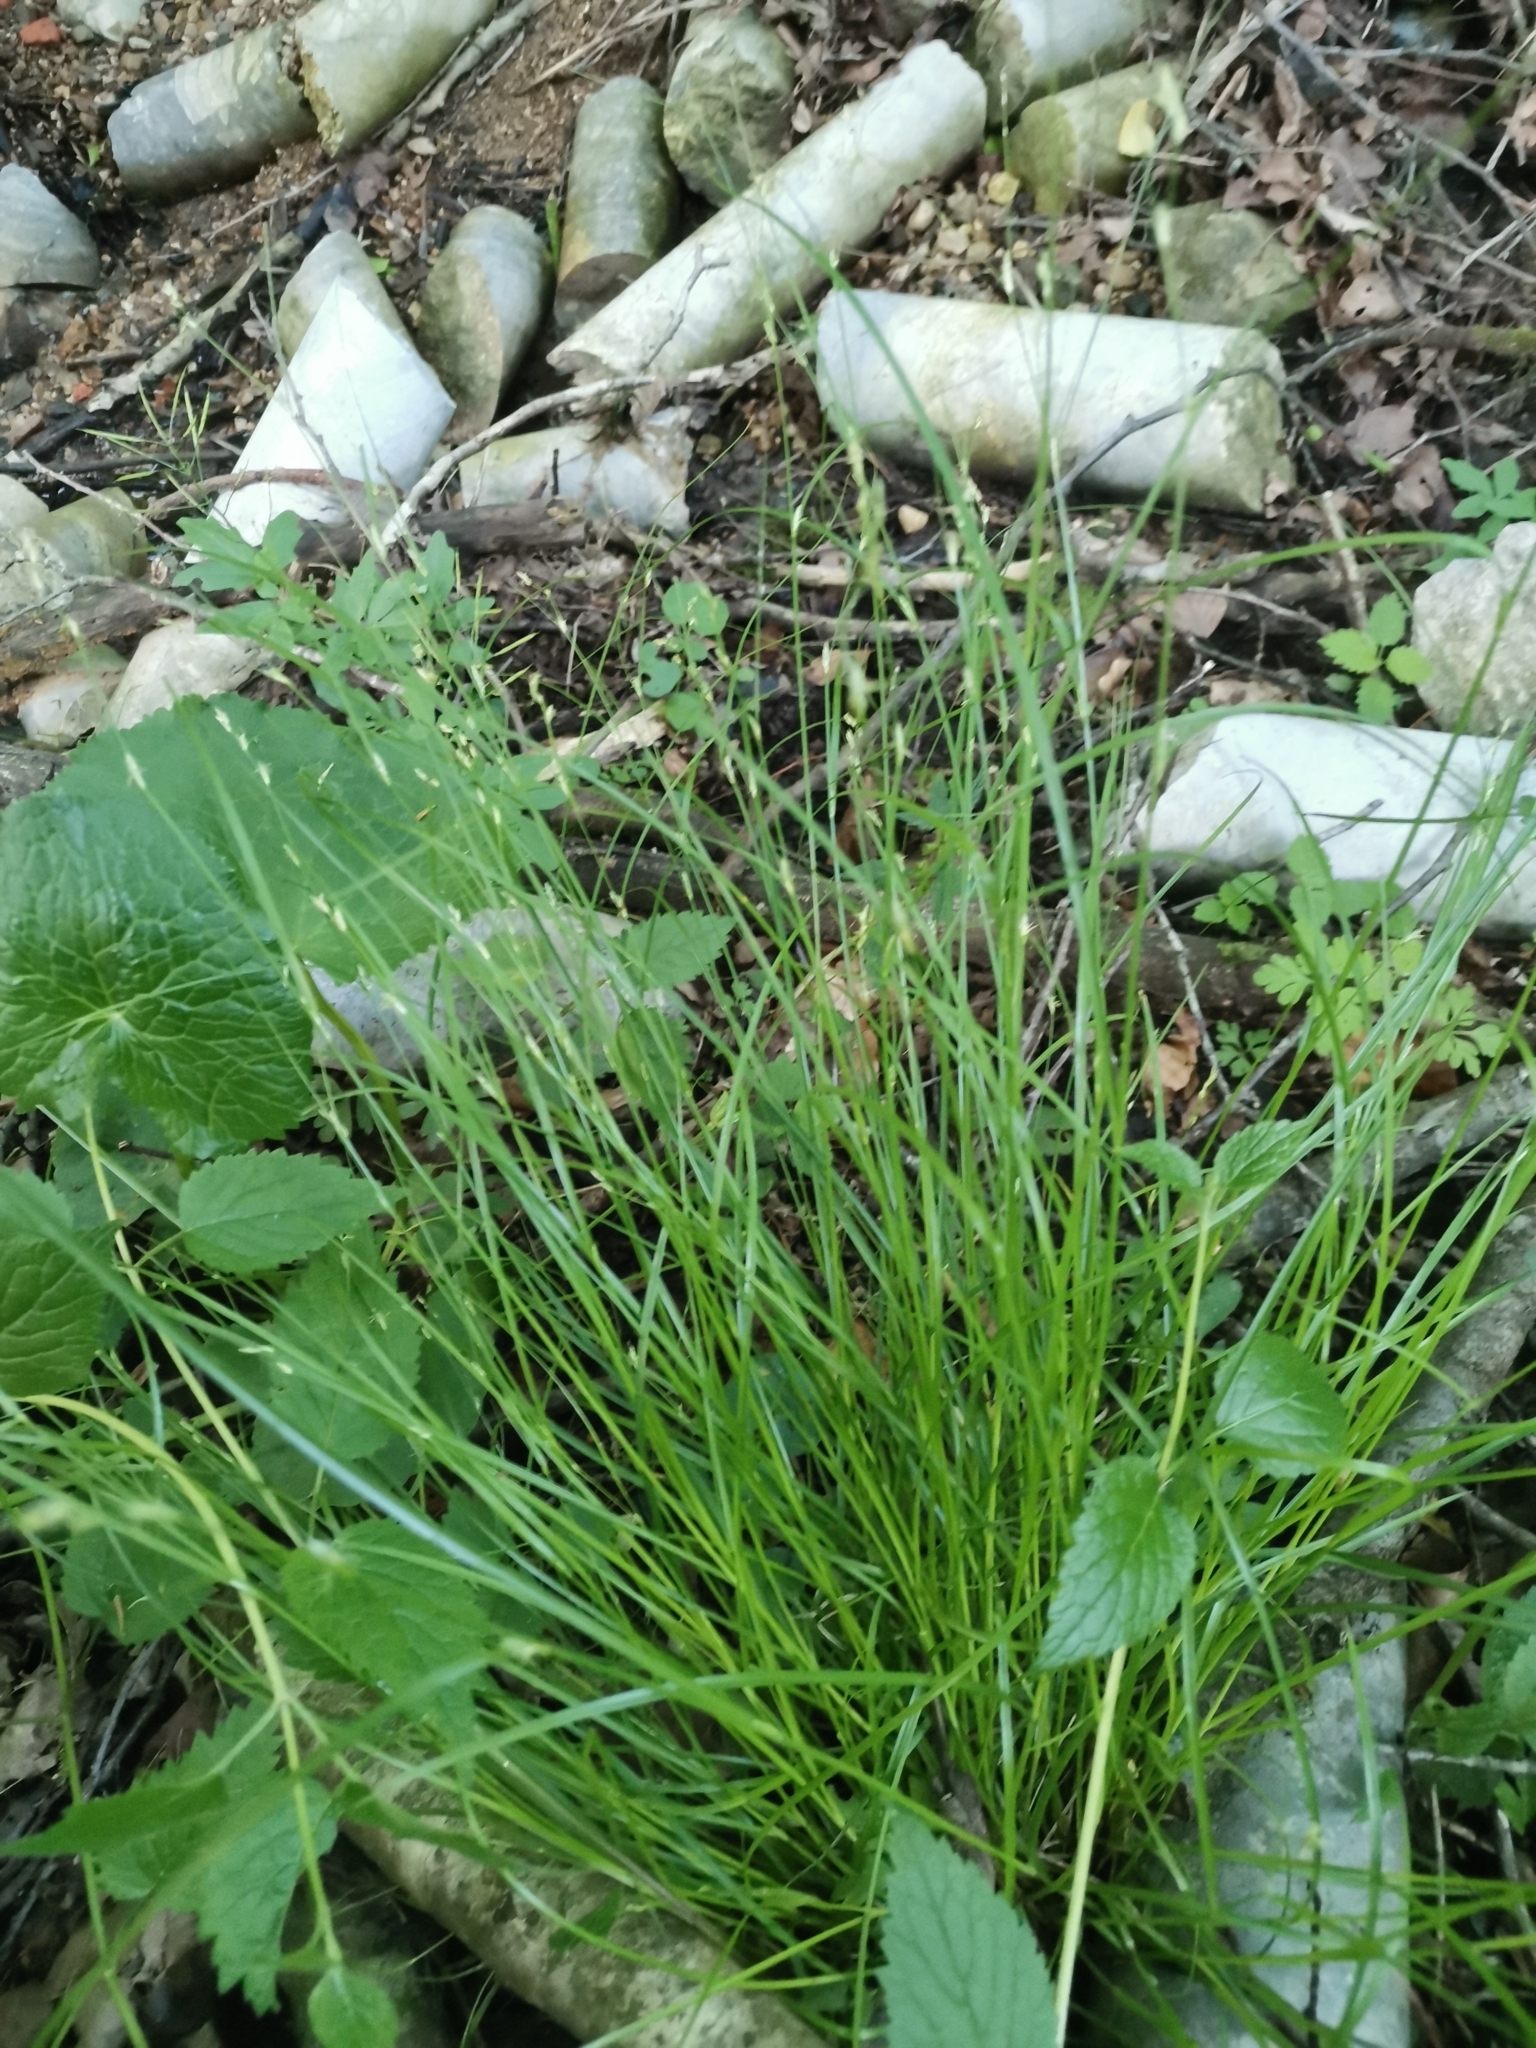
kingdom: Plantae
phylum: Tracheophyta
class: Liliopsida
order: Poales
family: Cyperaceae
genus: Carex
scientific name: Carex remota
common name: Remote sedge
